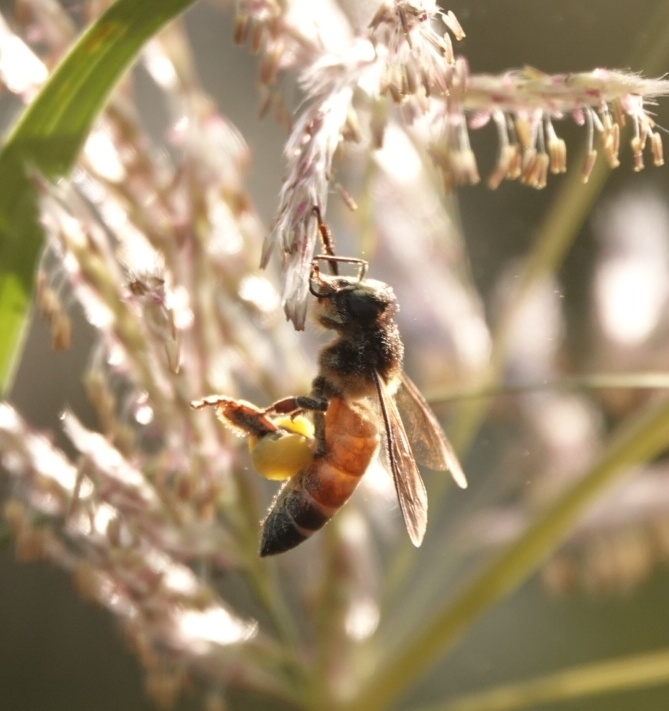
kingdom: Animalia
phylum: Arthropoda
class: Insecta
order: Hymenoptera
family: Apidae
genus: Apis
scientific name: Apis dorsata
